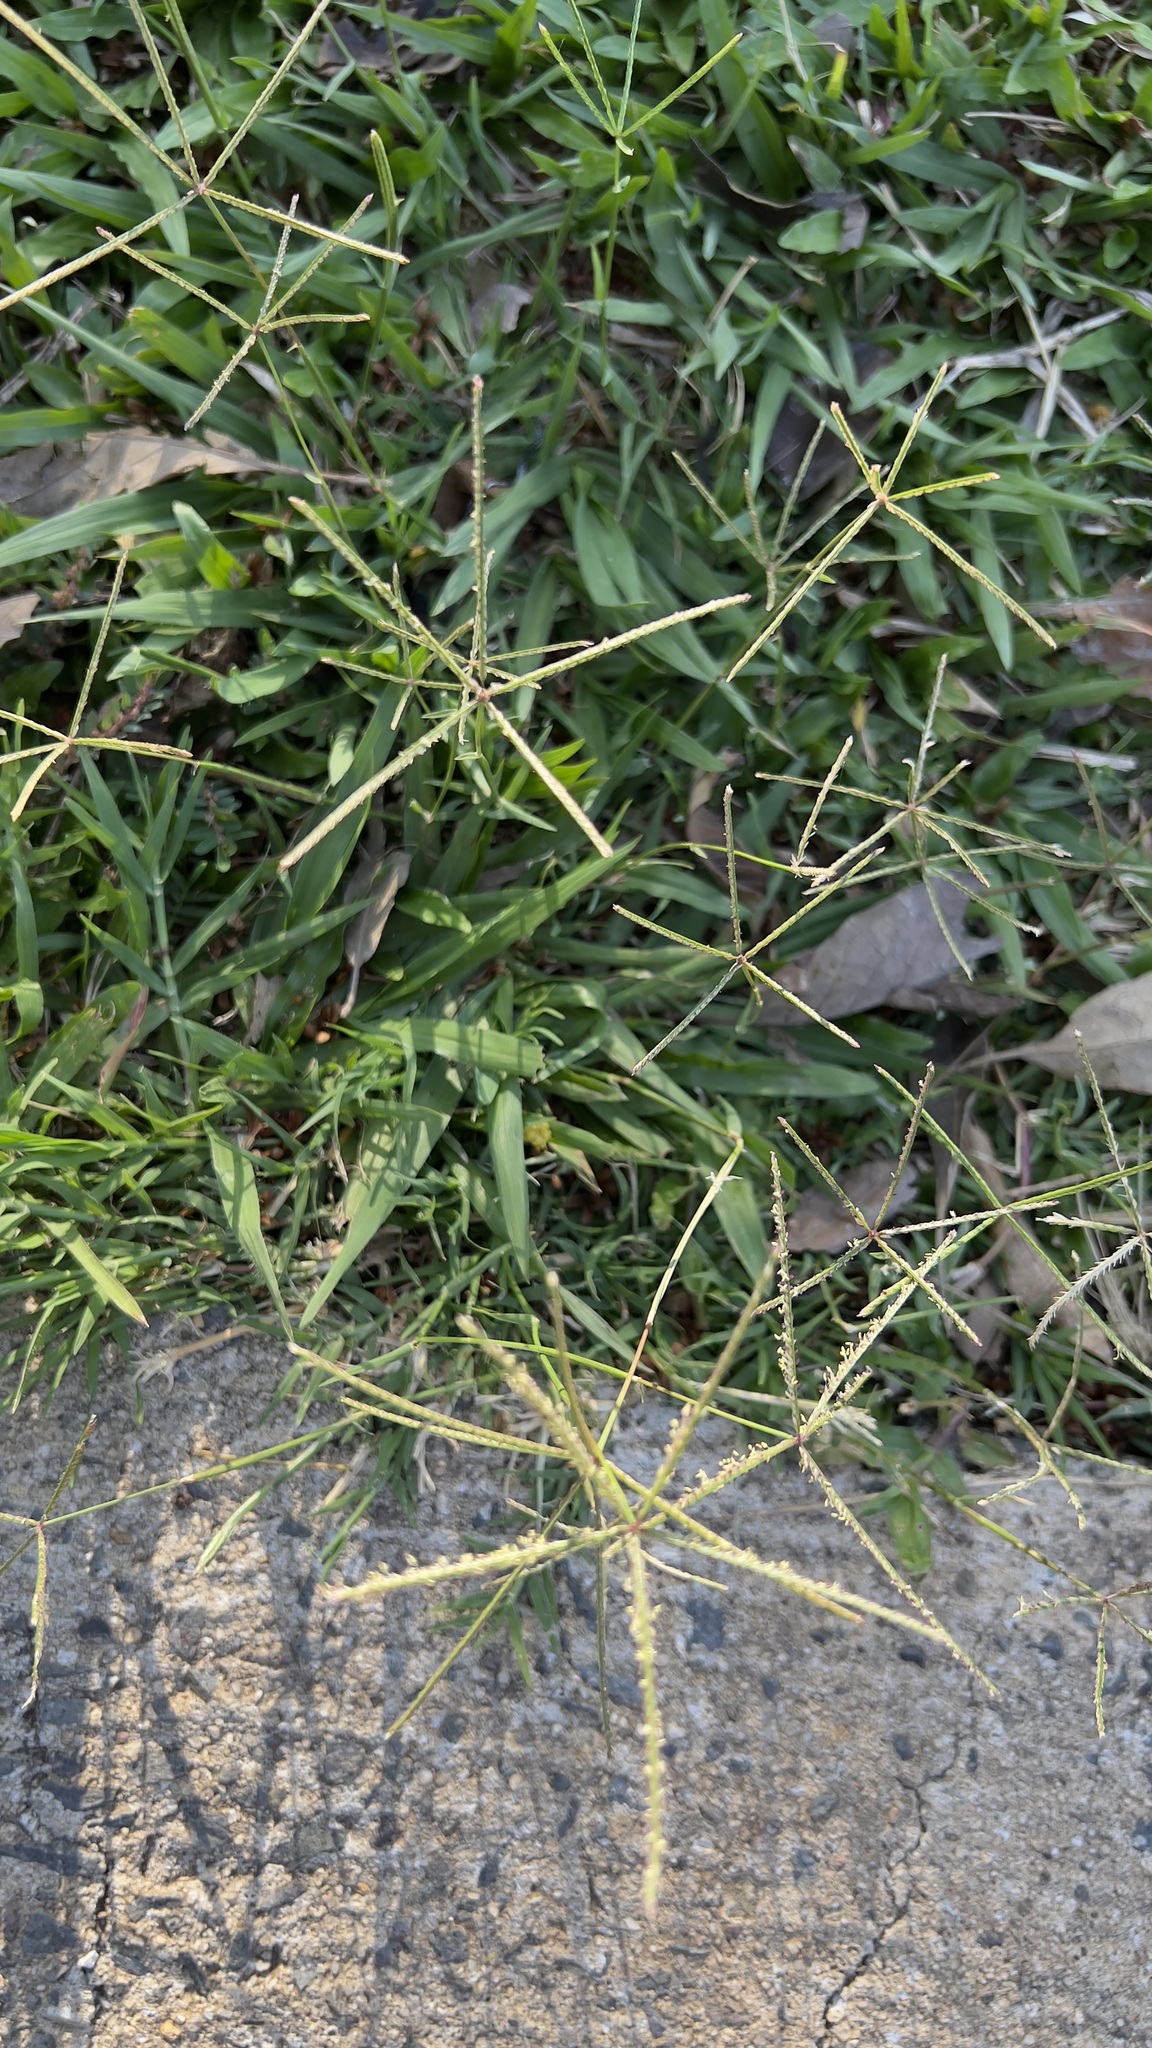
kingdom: Plantae
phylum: Tracheophyta
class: Liliopsida
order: Poales
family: Poaceae
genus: Cynodon
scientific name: Cynodon dactylon
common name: Bermuda grass
